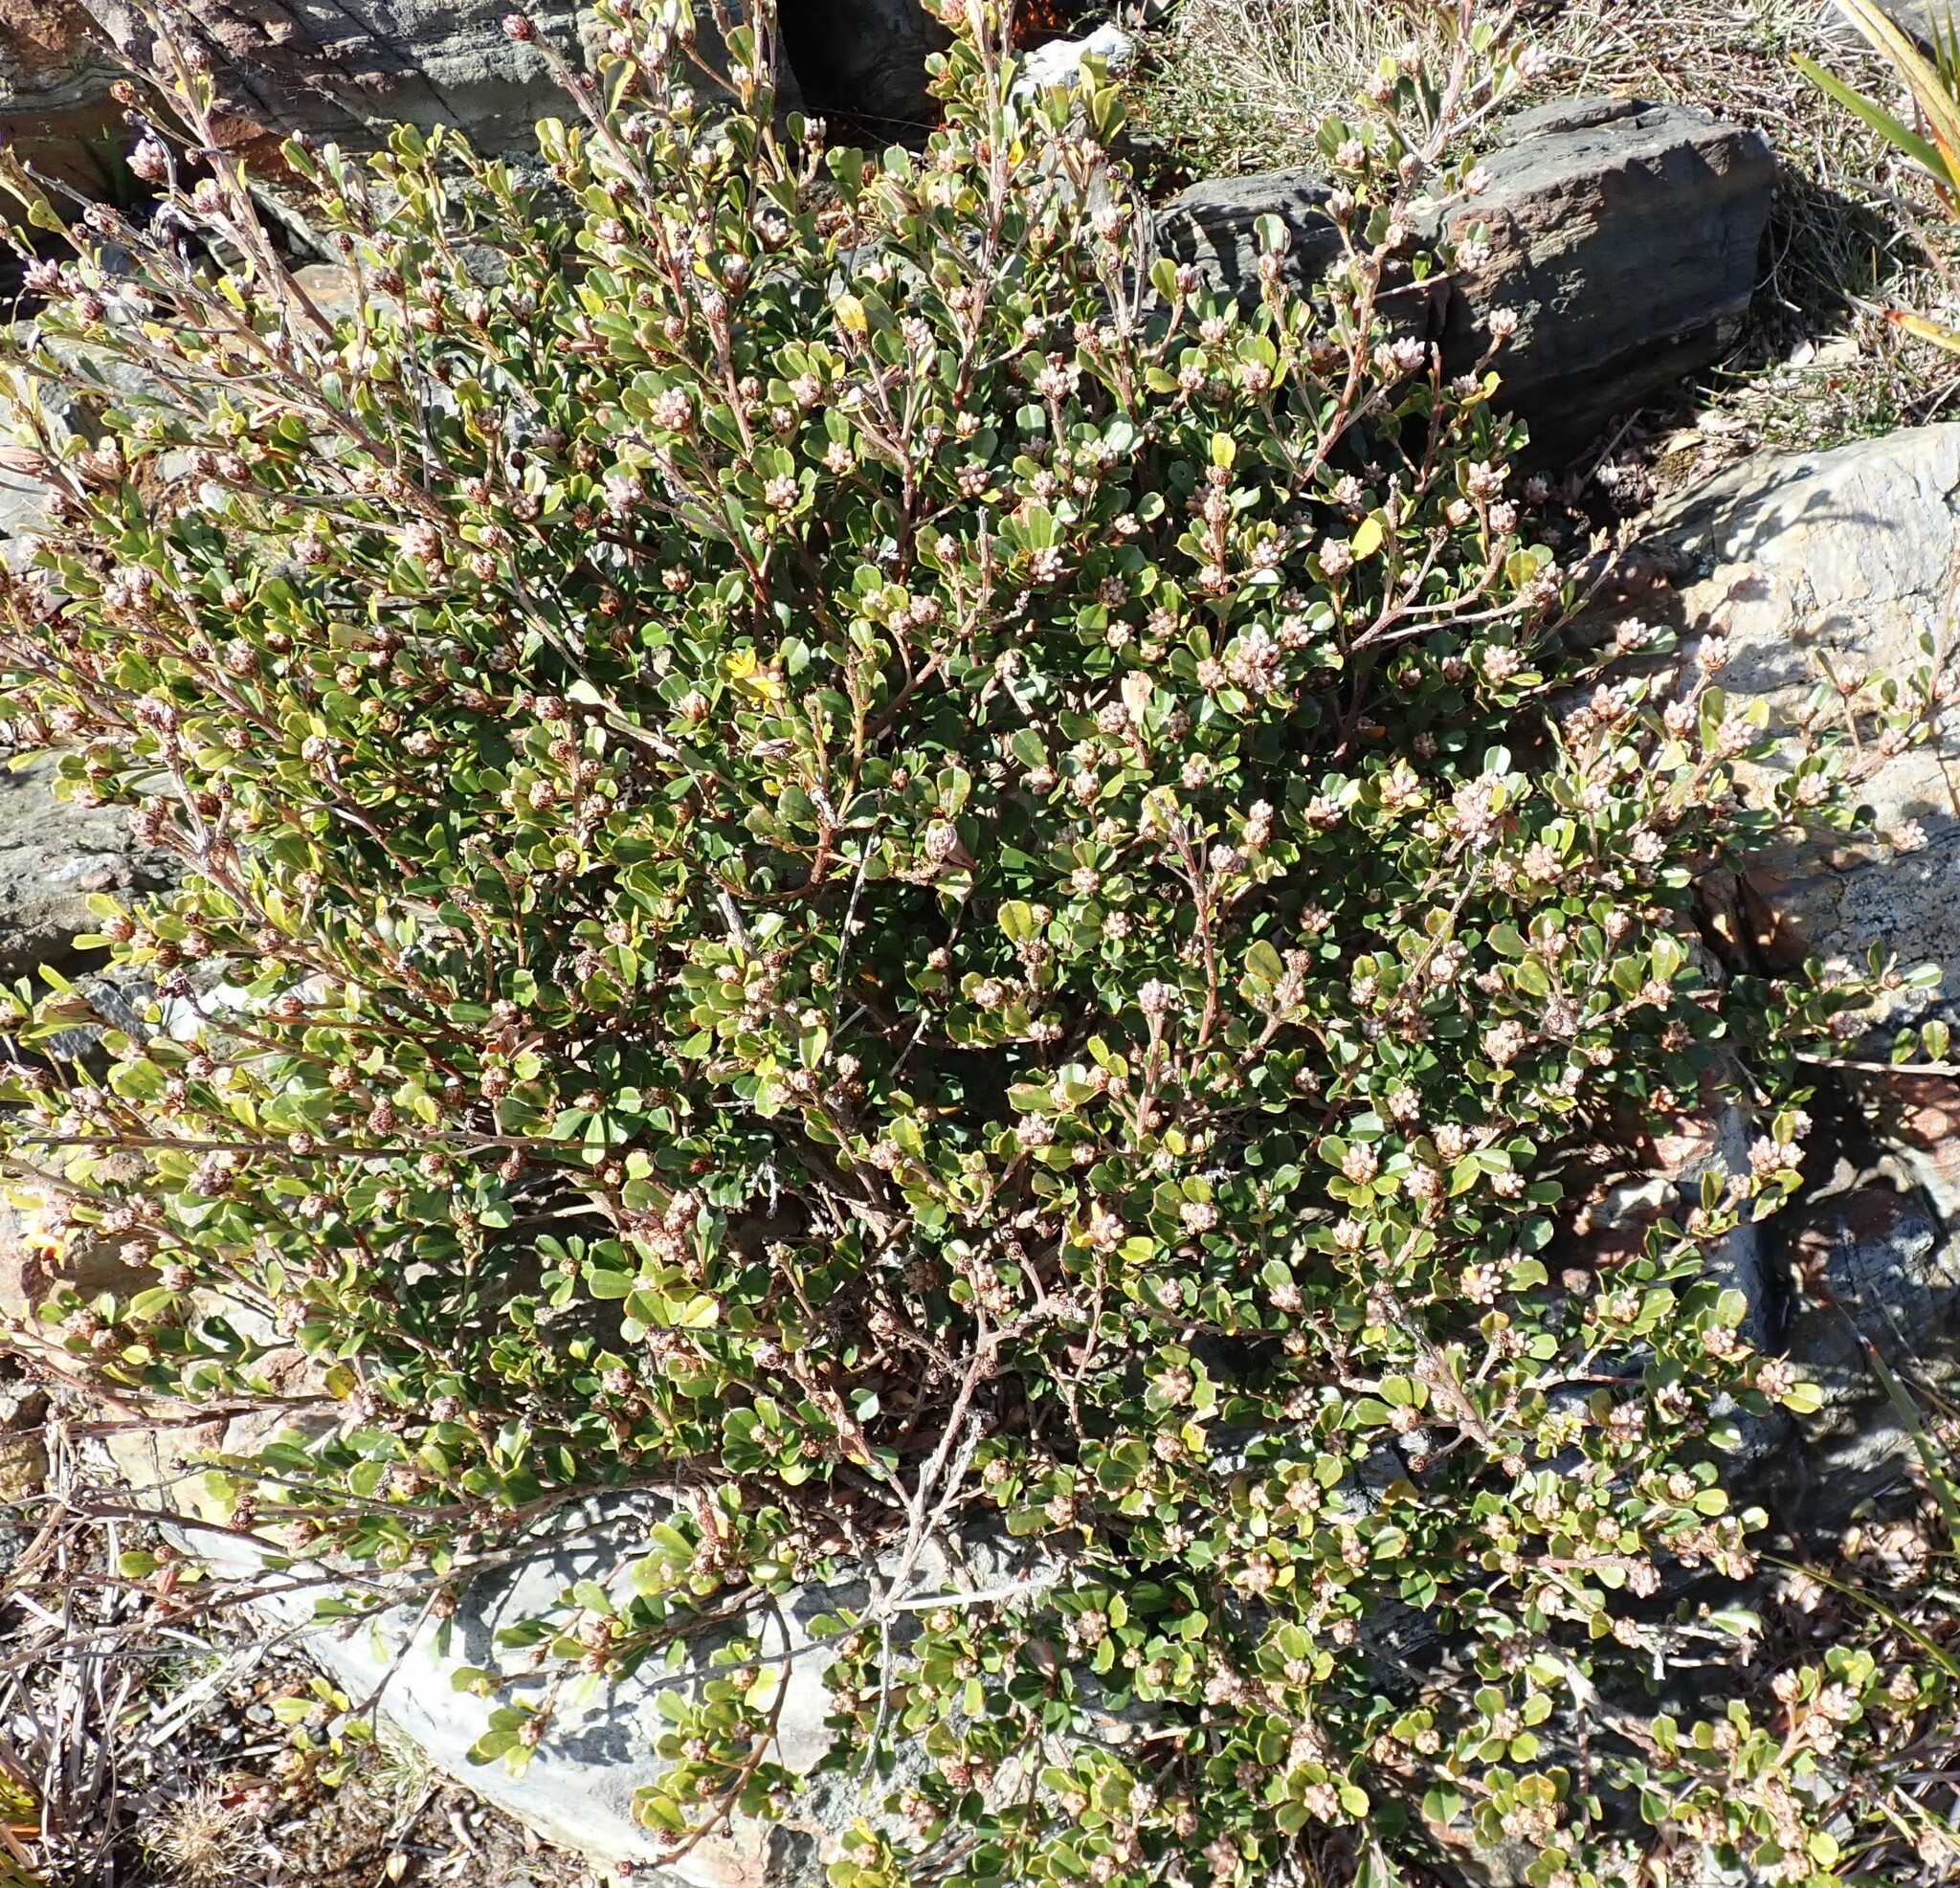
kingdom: Plantae
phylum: Tracheophyta
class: Magnoliopsida
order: Fabales
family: Fabaceae
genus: Pultenaea
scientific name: Pultenaea daphnoides
